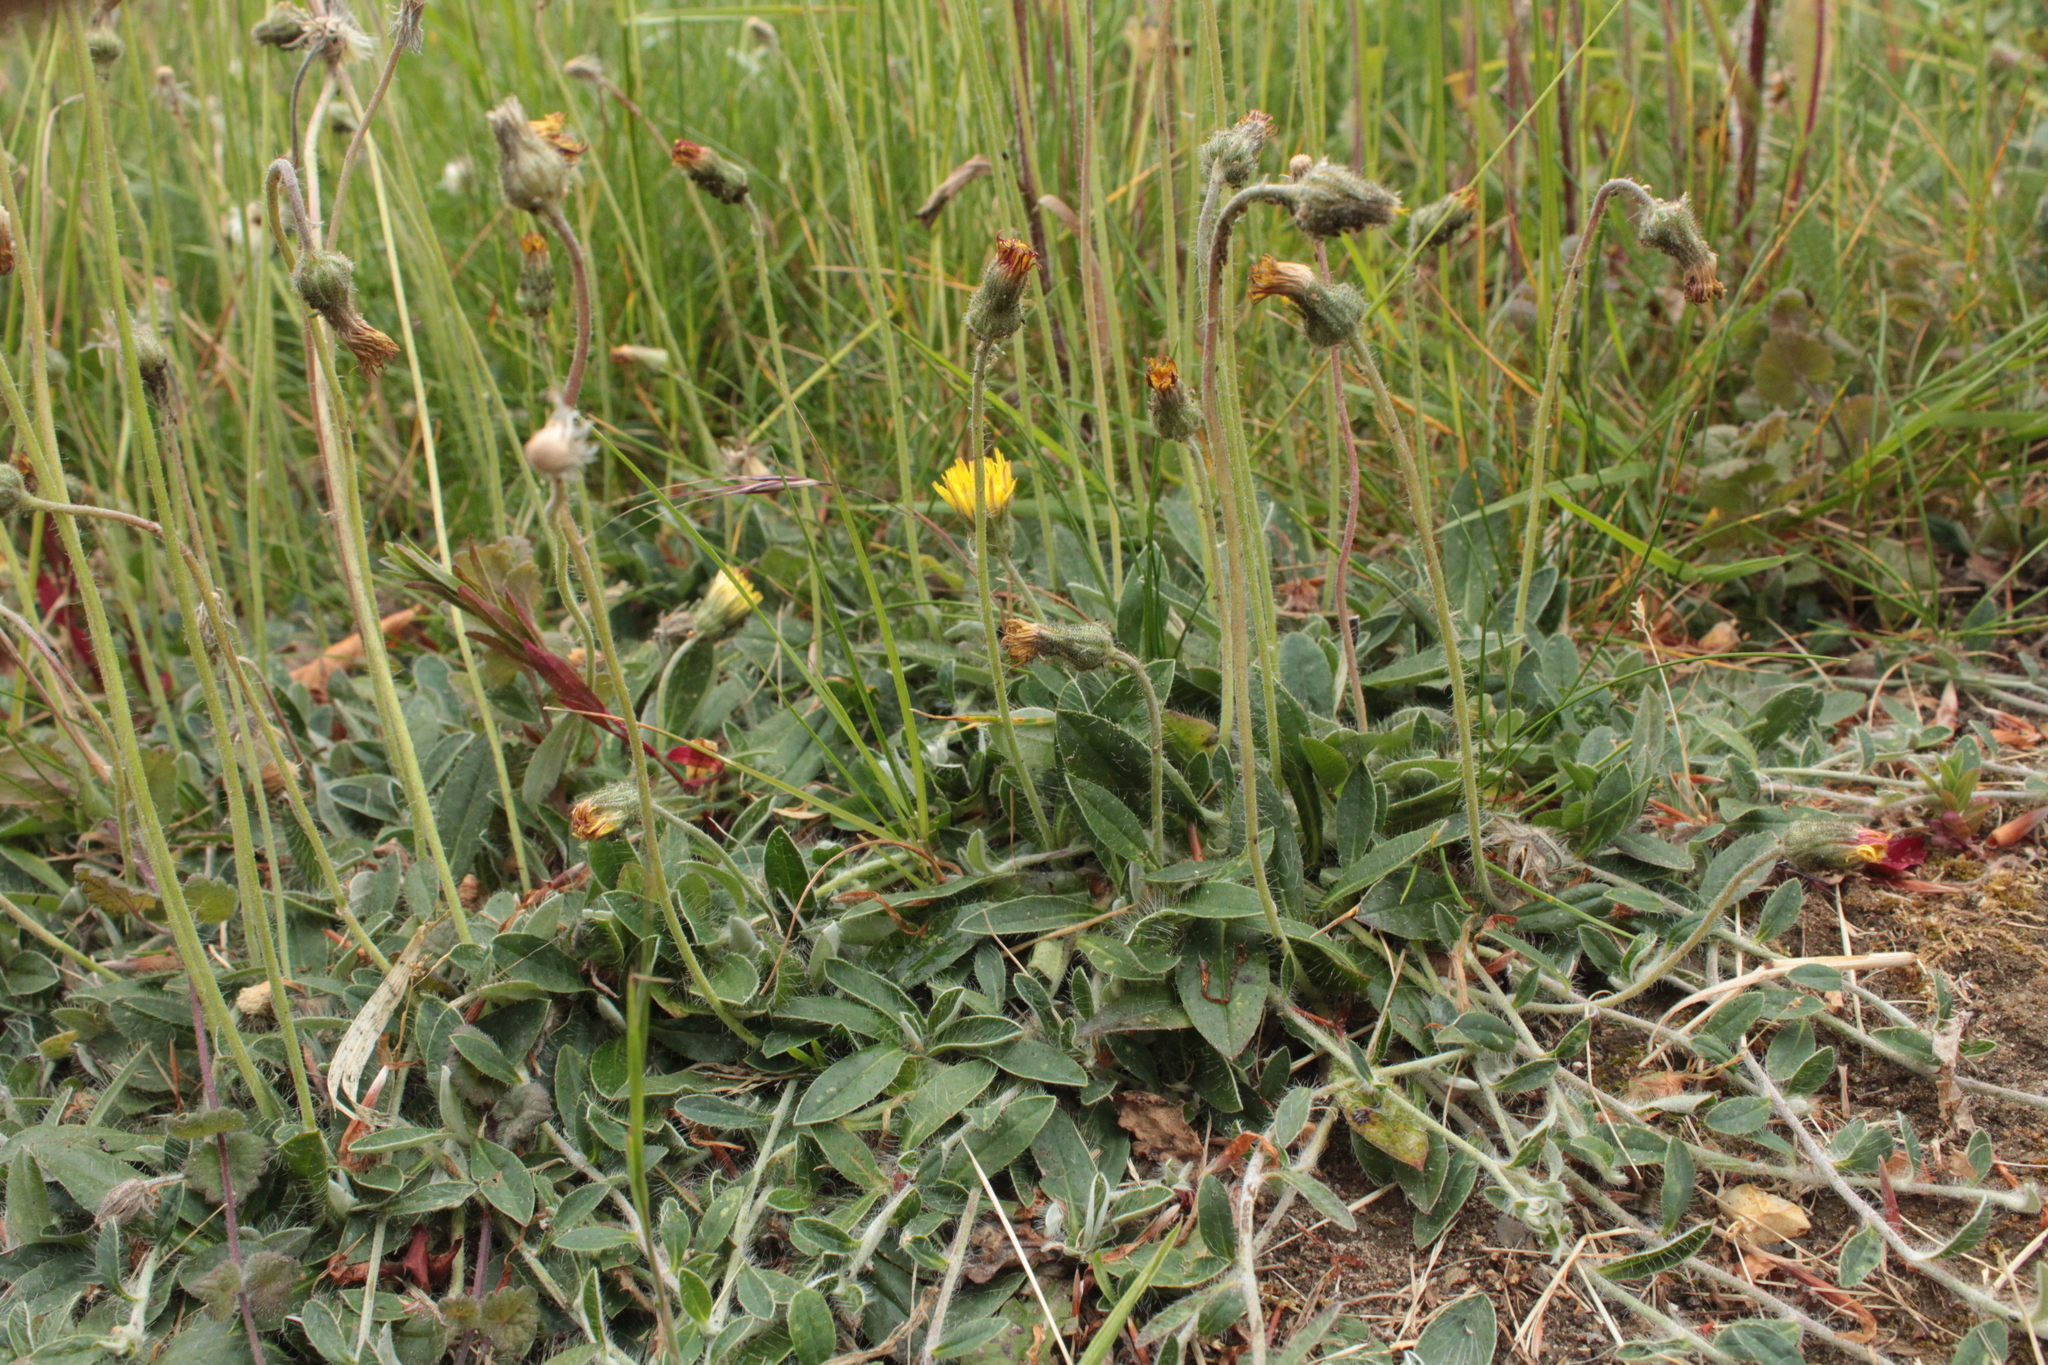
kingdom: Plantae
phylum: Tracheophyta
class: Magnoliopsida
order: Asterales
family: Asteraceae
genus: Pilosella
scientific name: Pilosella officinarum
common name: Mouse-ear hawkweed
